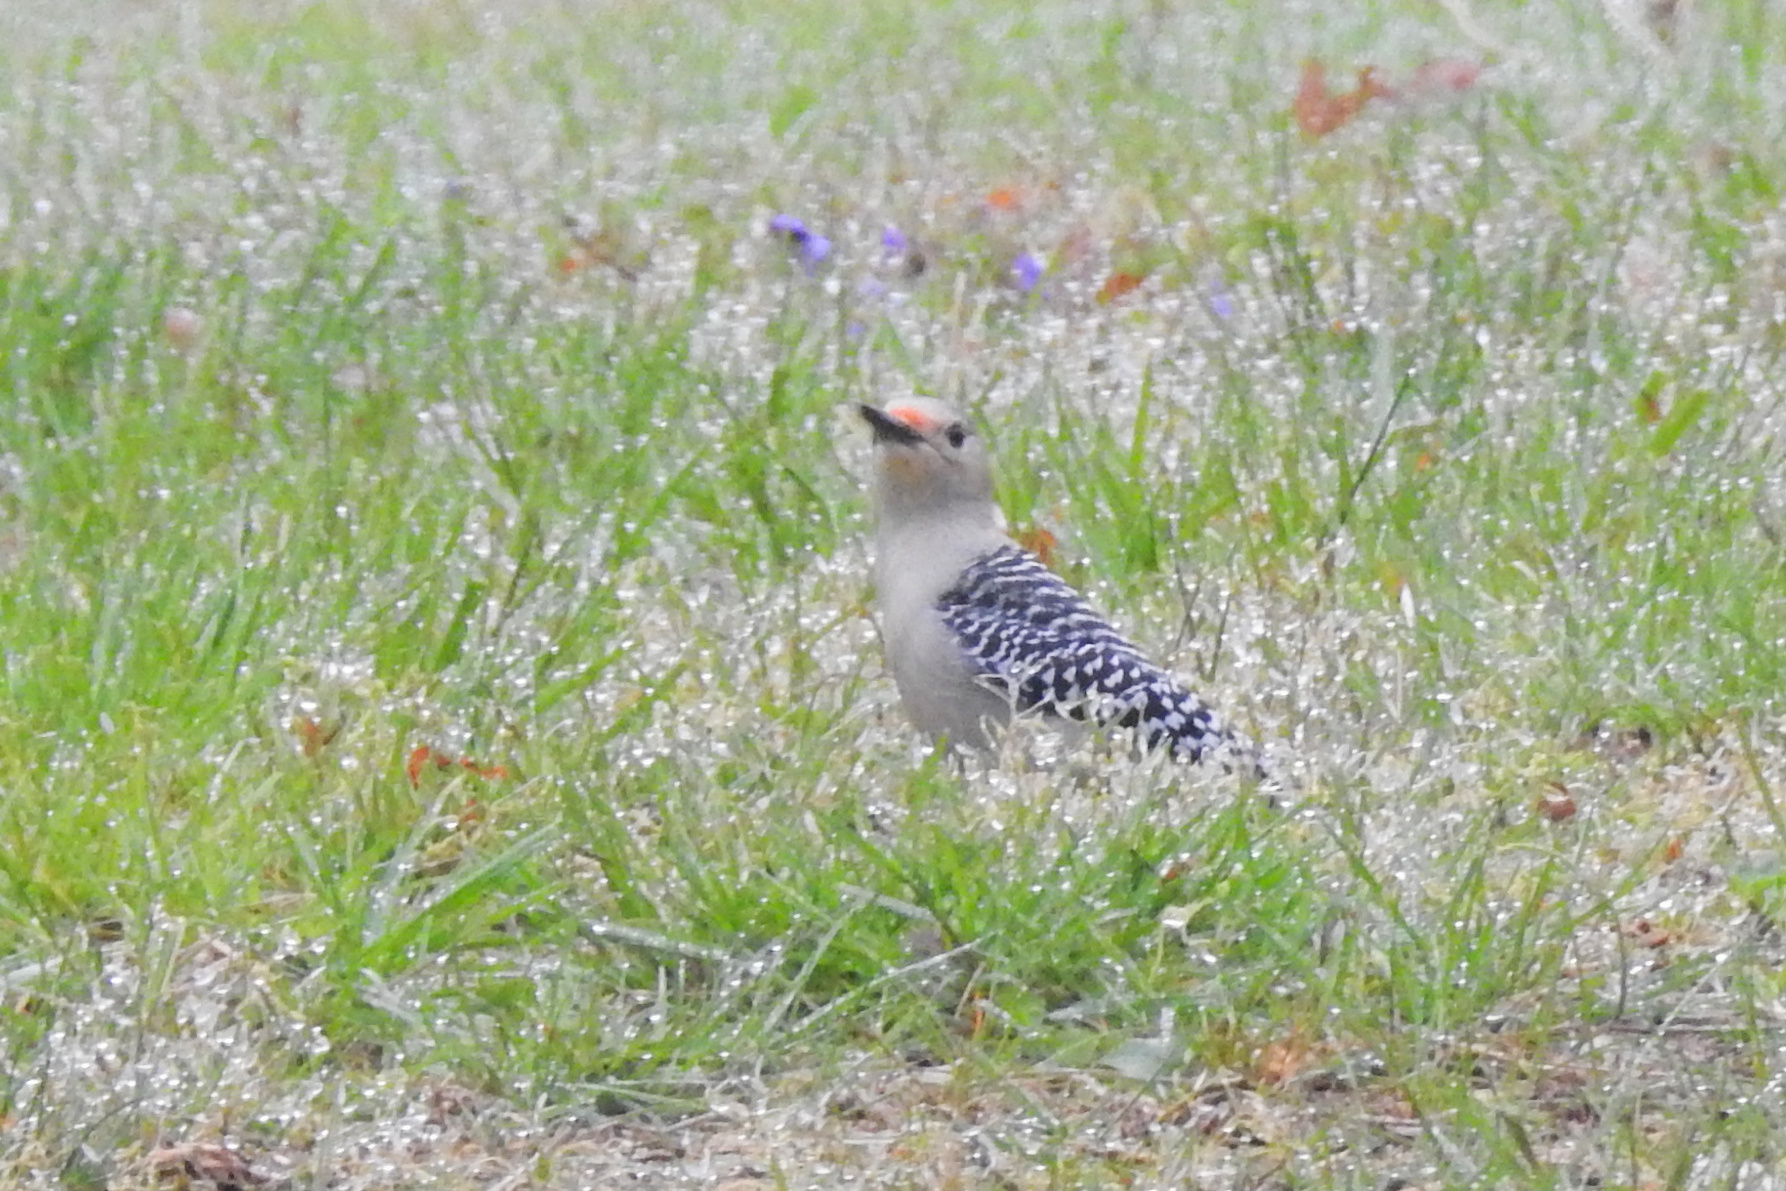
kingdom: Animalia
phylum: Chordata
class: Aves
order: Piciformes
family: Picidae
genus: Melanerpes
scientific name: Melanerpes carolinus
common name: Red-bellied woodpecker
